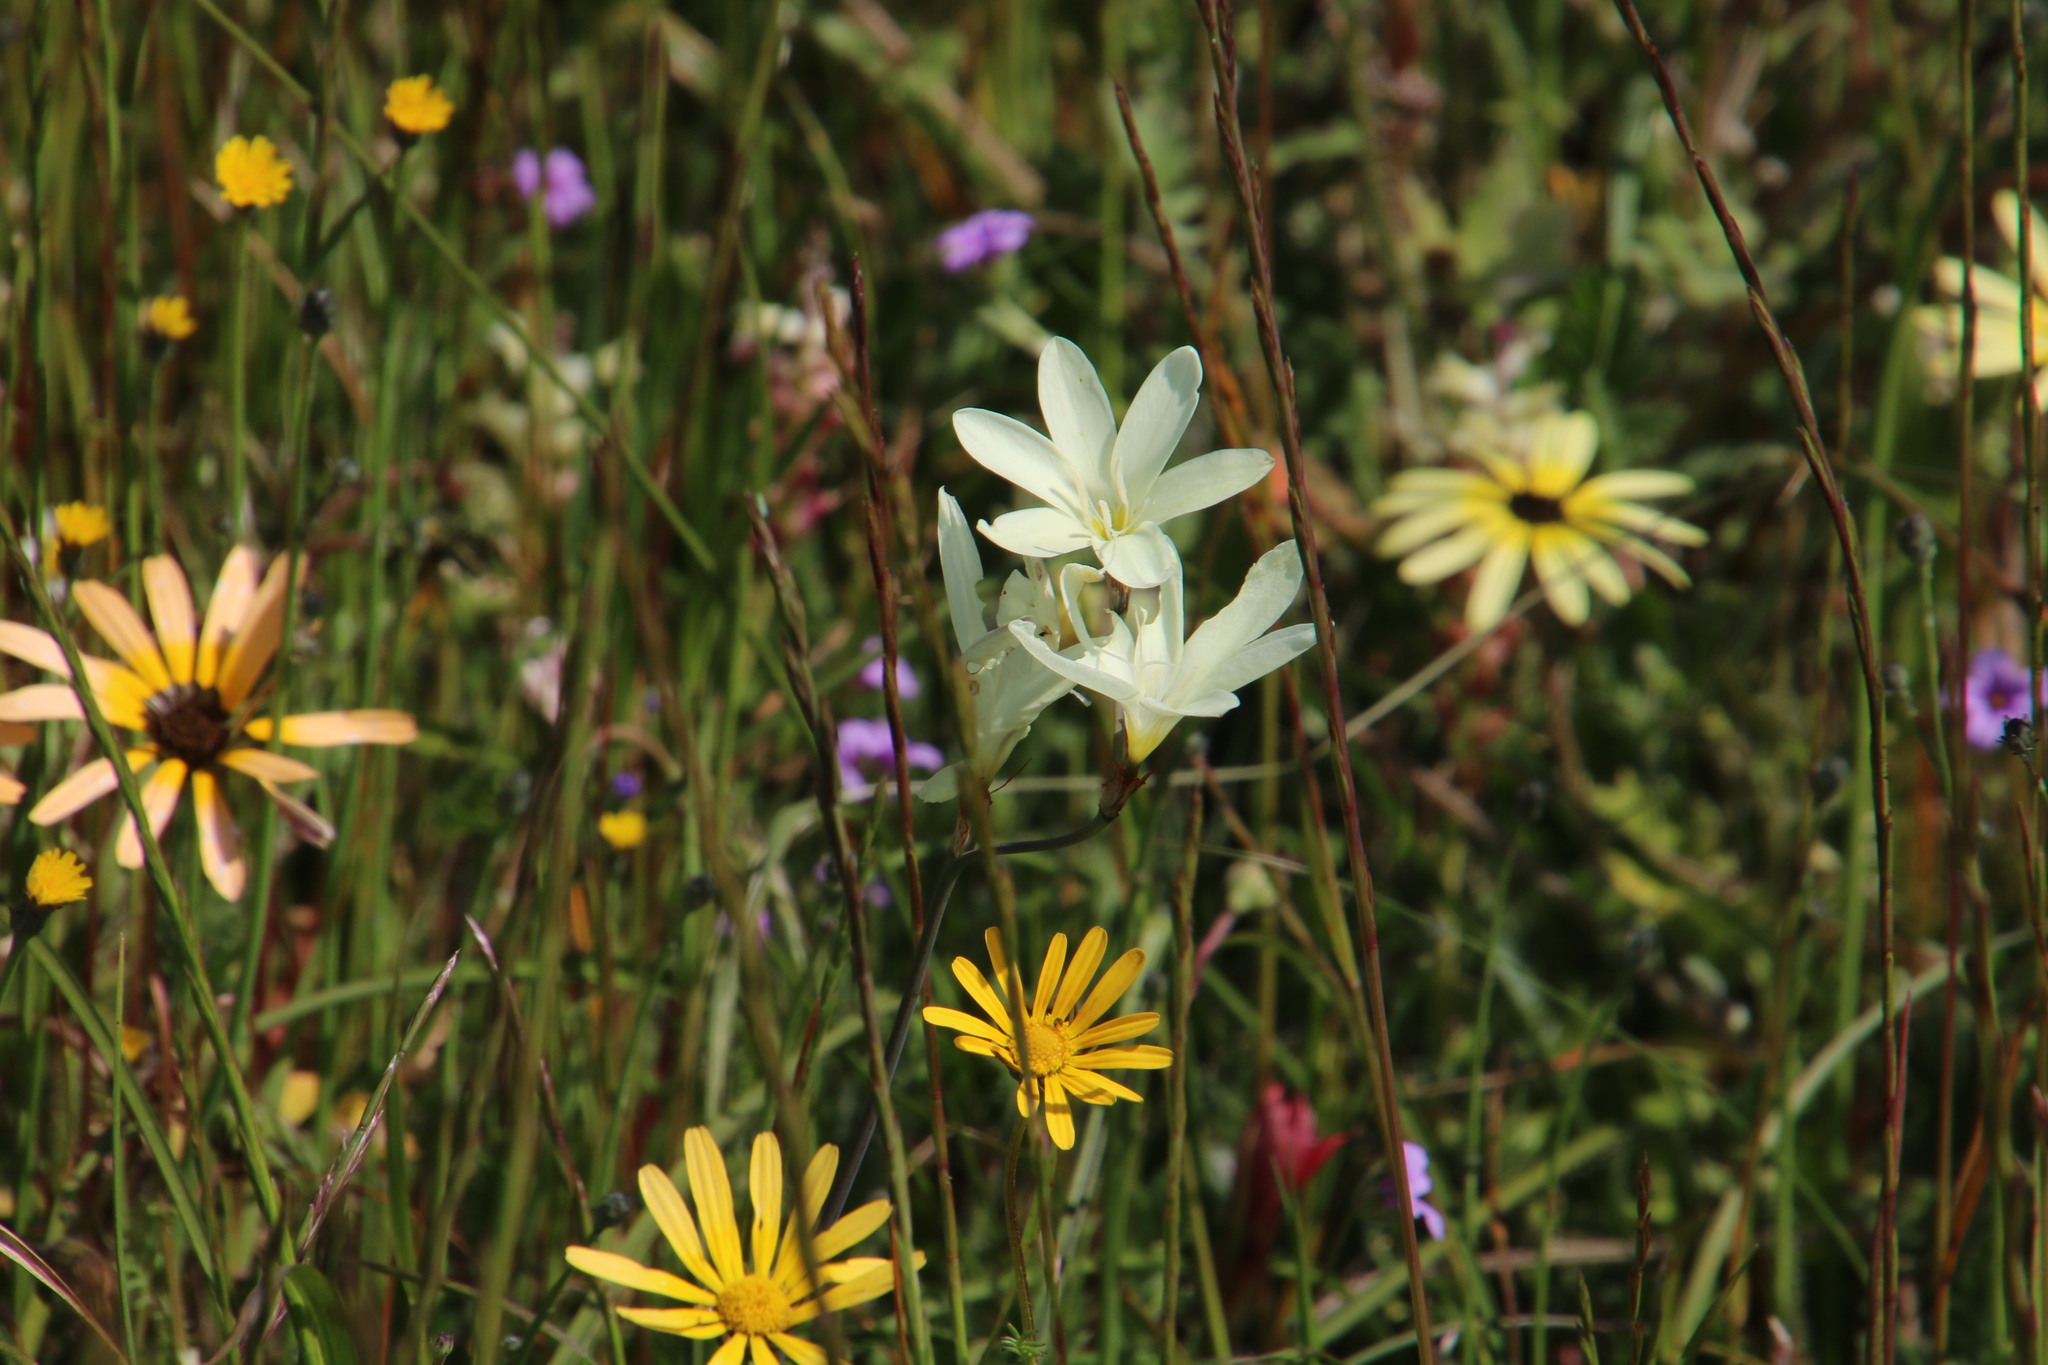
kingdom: Plantae
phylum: Tracheophyta
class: Liliopsida
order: Asparagales
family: Iridaceae
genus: Sparaxis
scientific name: Sparaxis bulbifera
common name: Harlequin-flower
